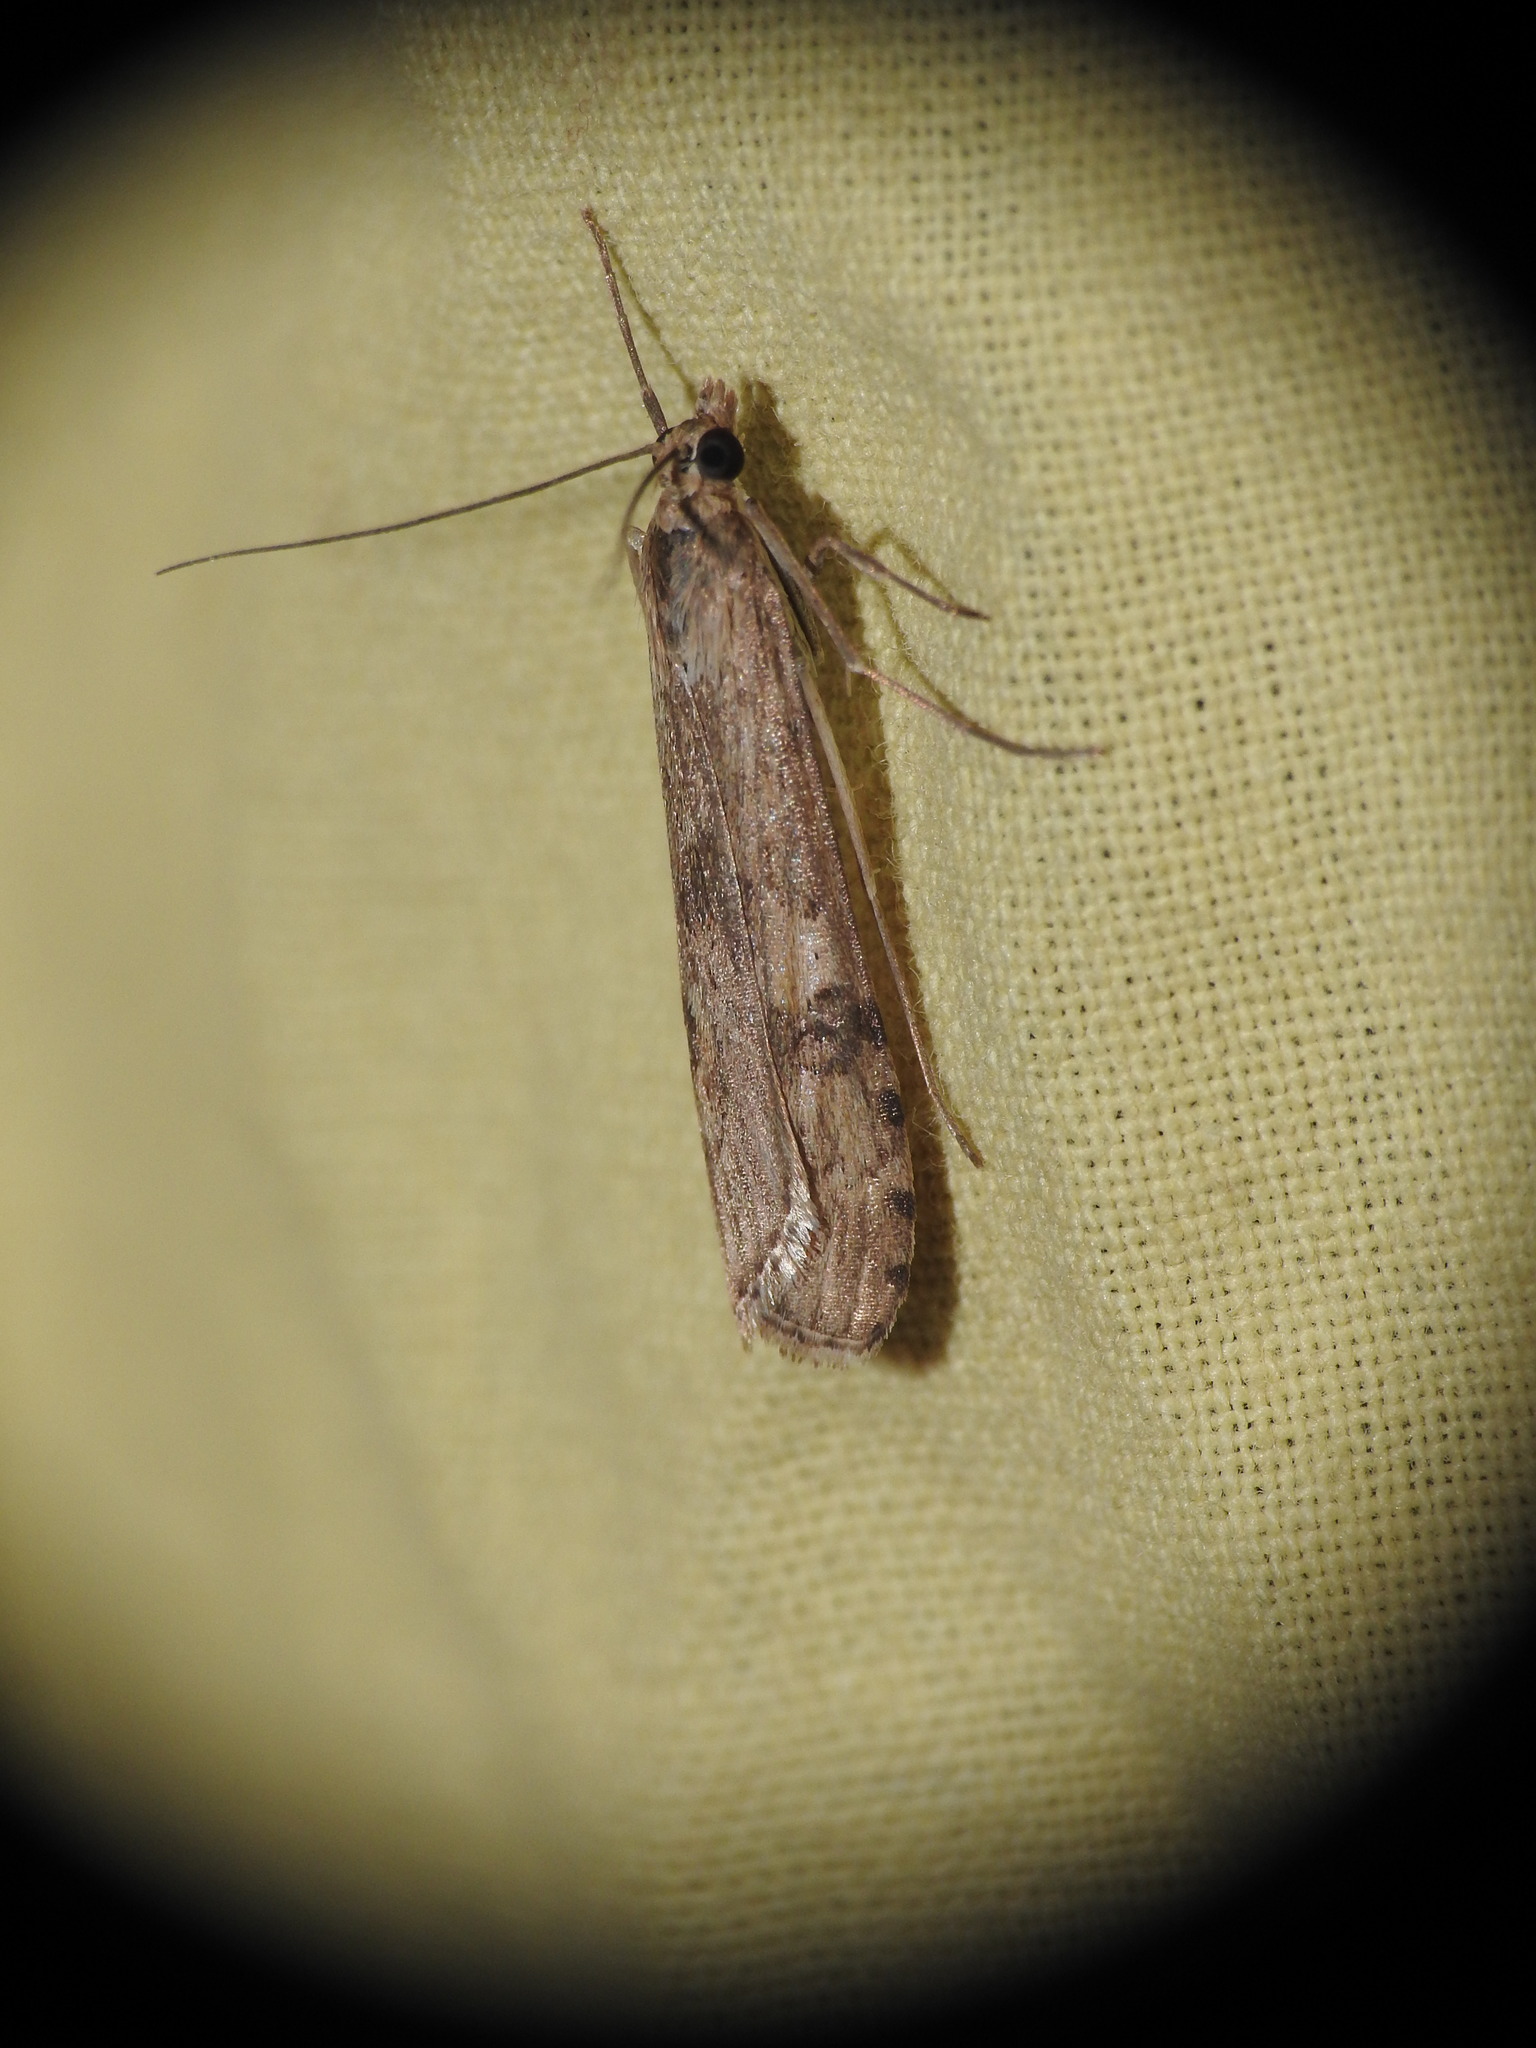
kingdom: Animalia
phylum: Arthropoda
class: Insecta
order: Lepidoptera
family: Crambidae
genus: Nomophila
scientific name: Nomophila noctuella
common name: Rush veneer
